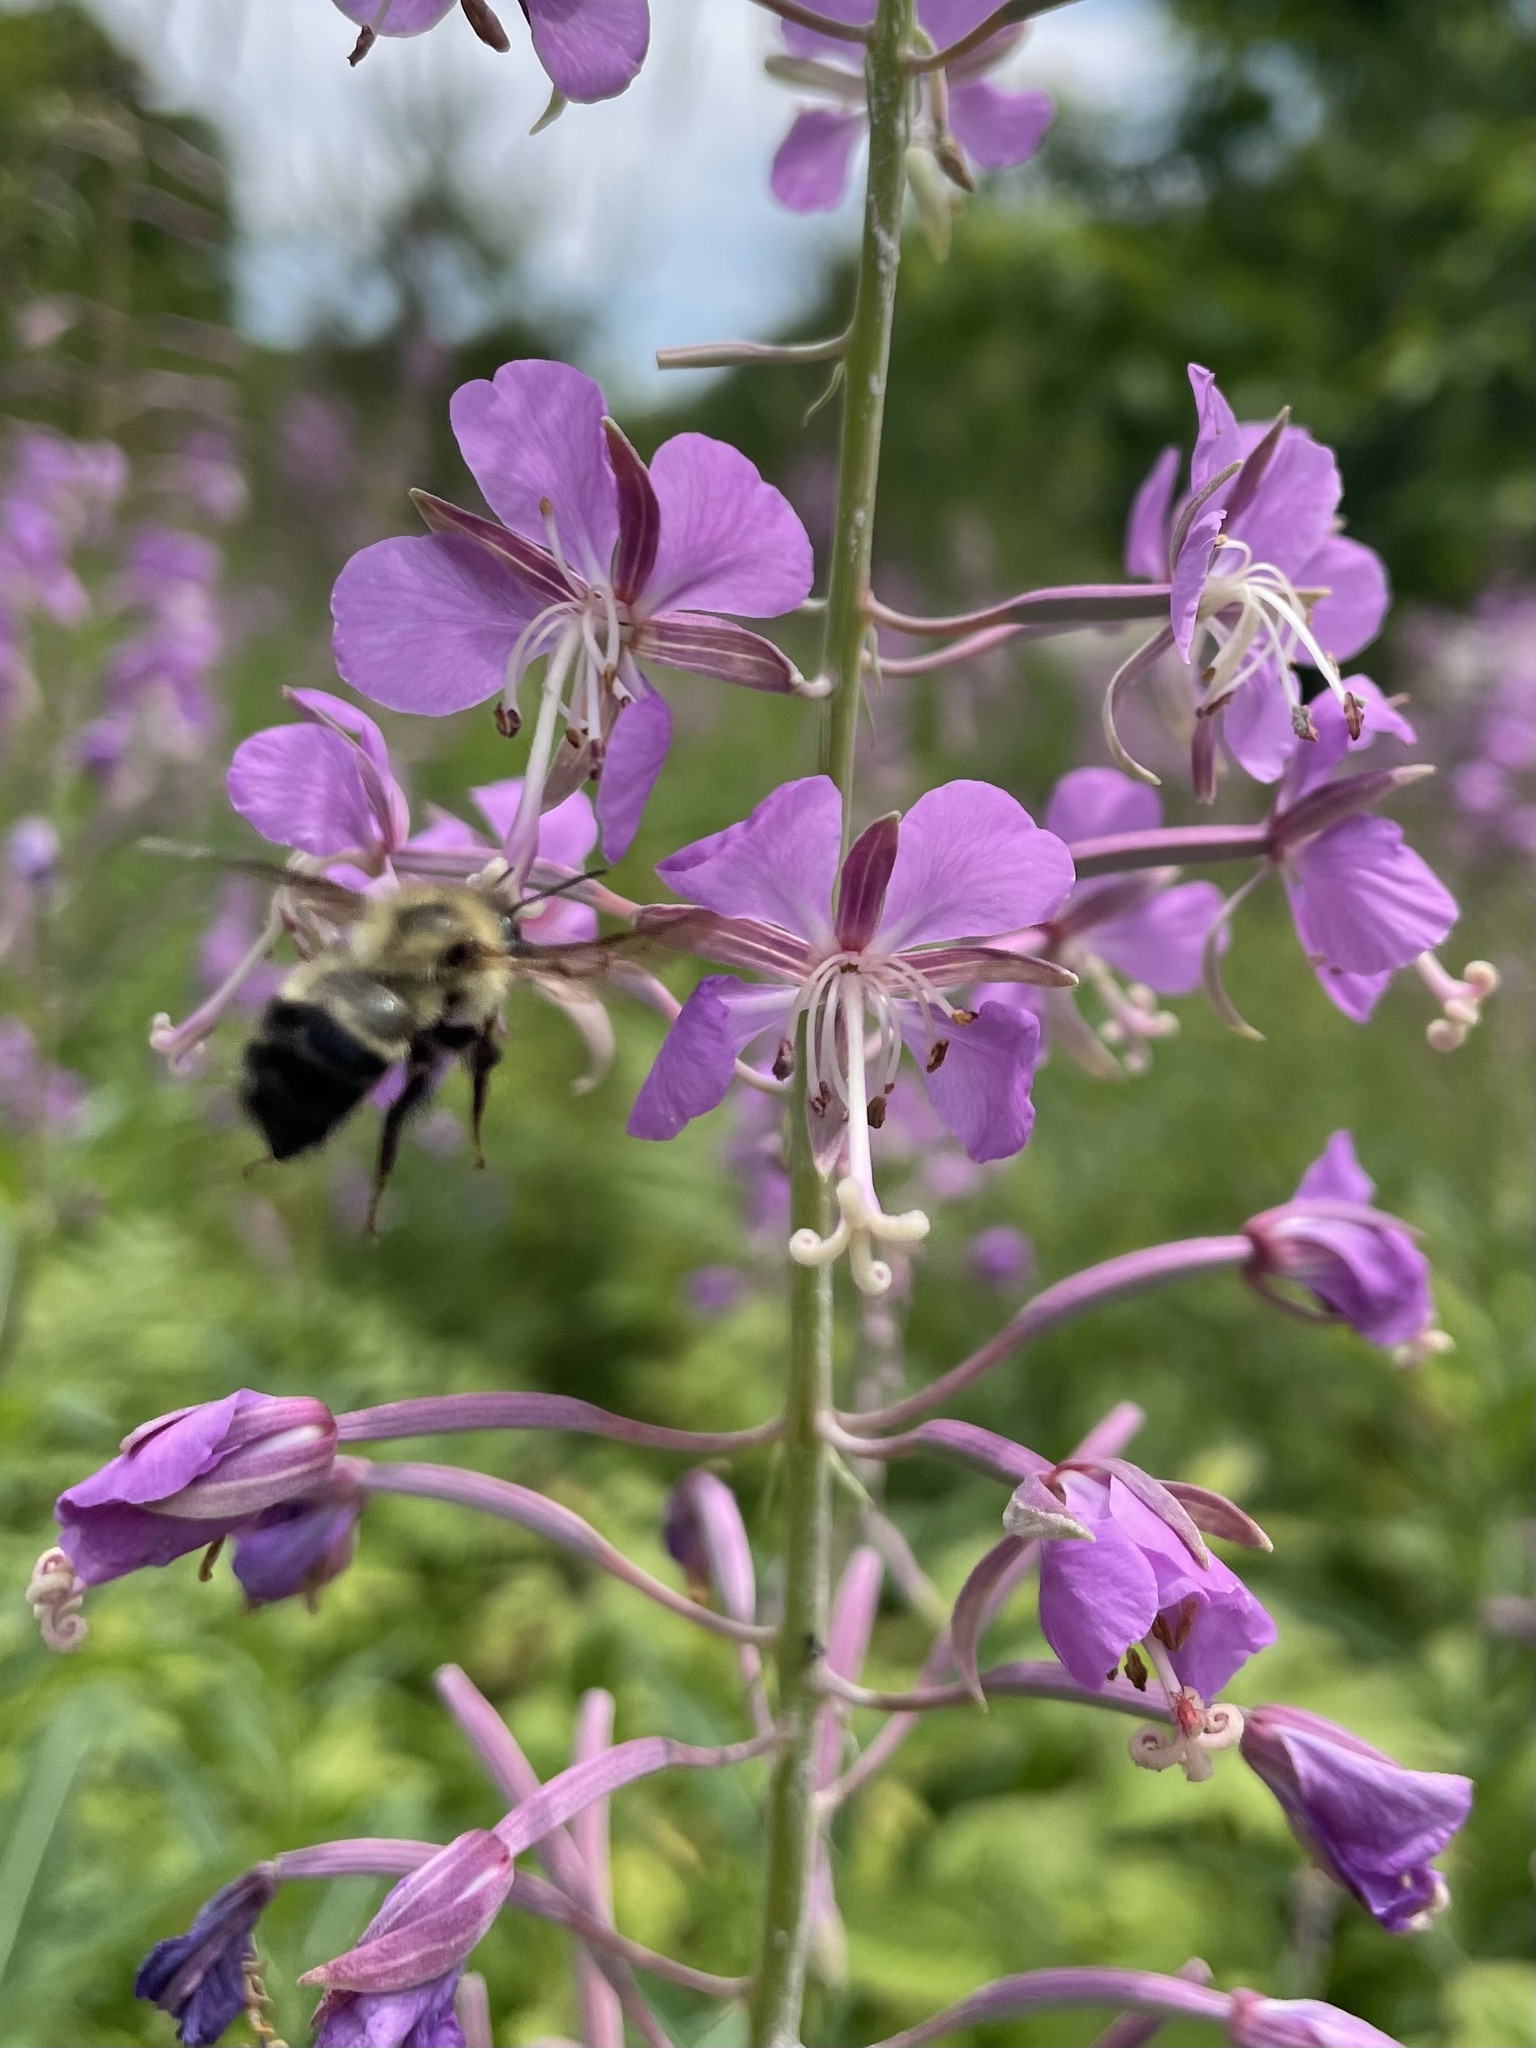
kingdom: Animalia
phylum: Arthropoda
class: Insecta
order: Hymenoptera
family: Apidae
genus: Pyrobombus
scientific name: Pyrobombus
